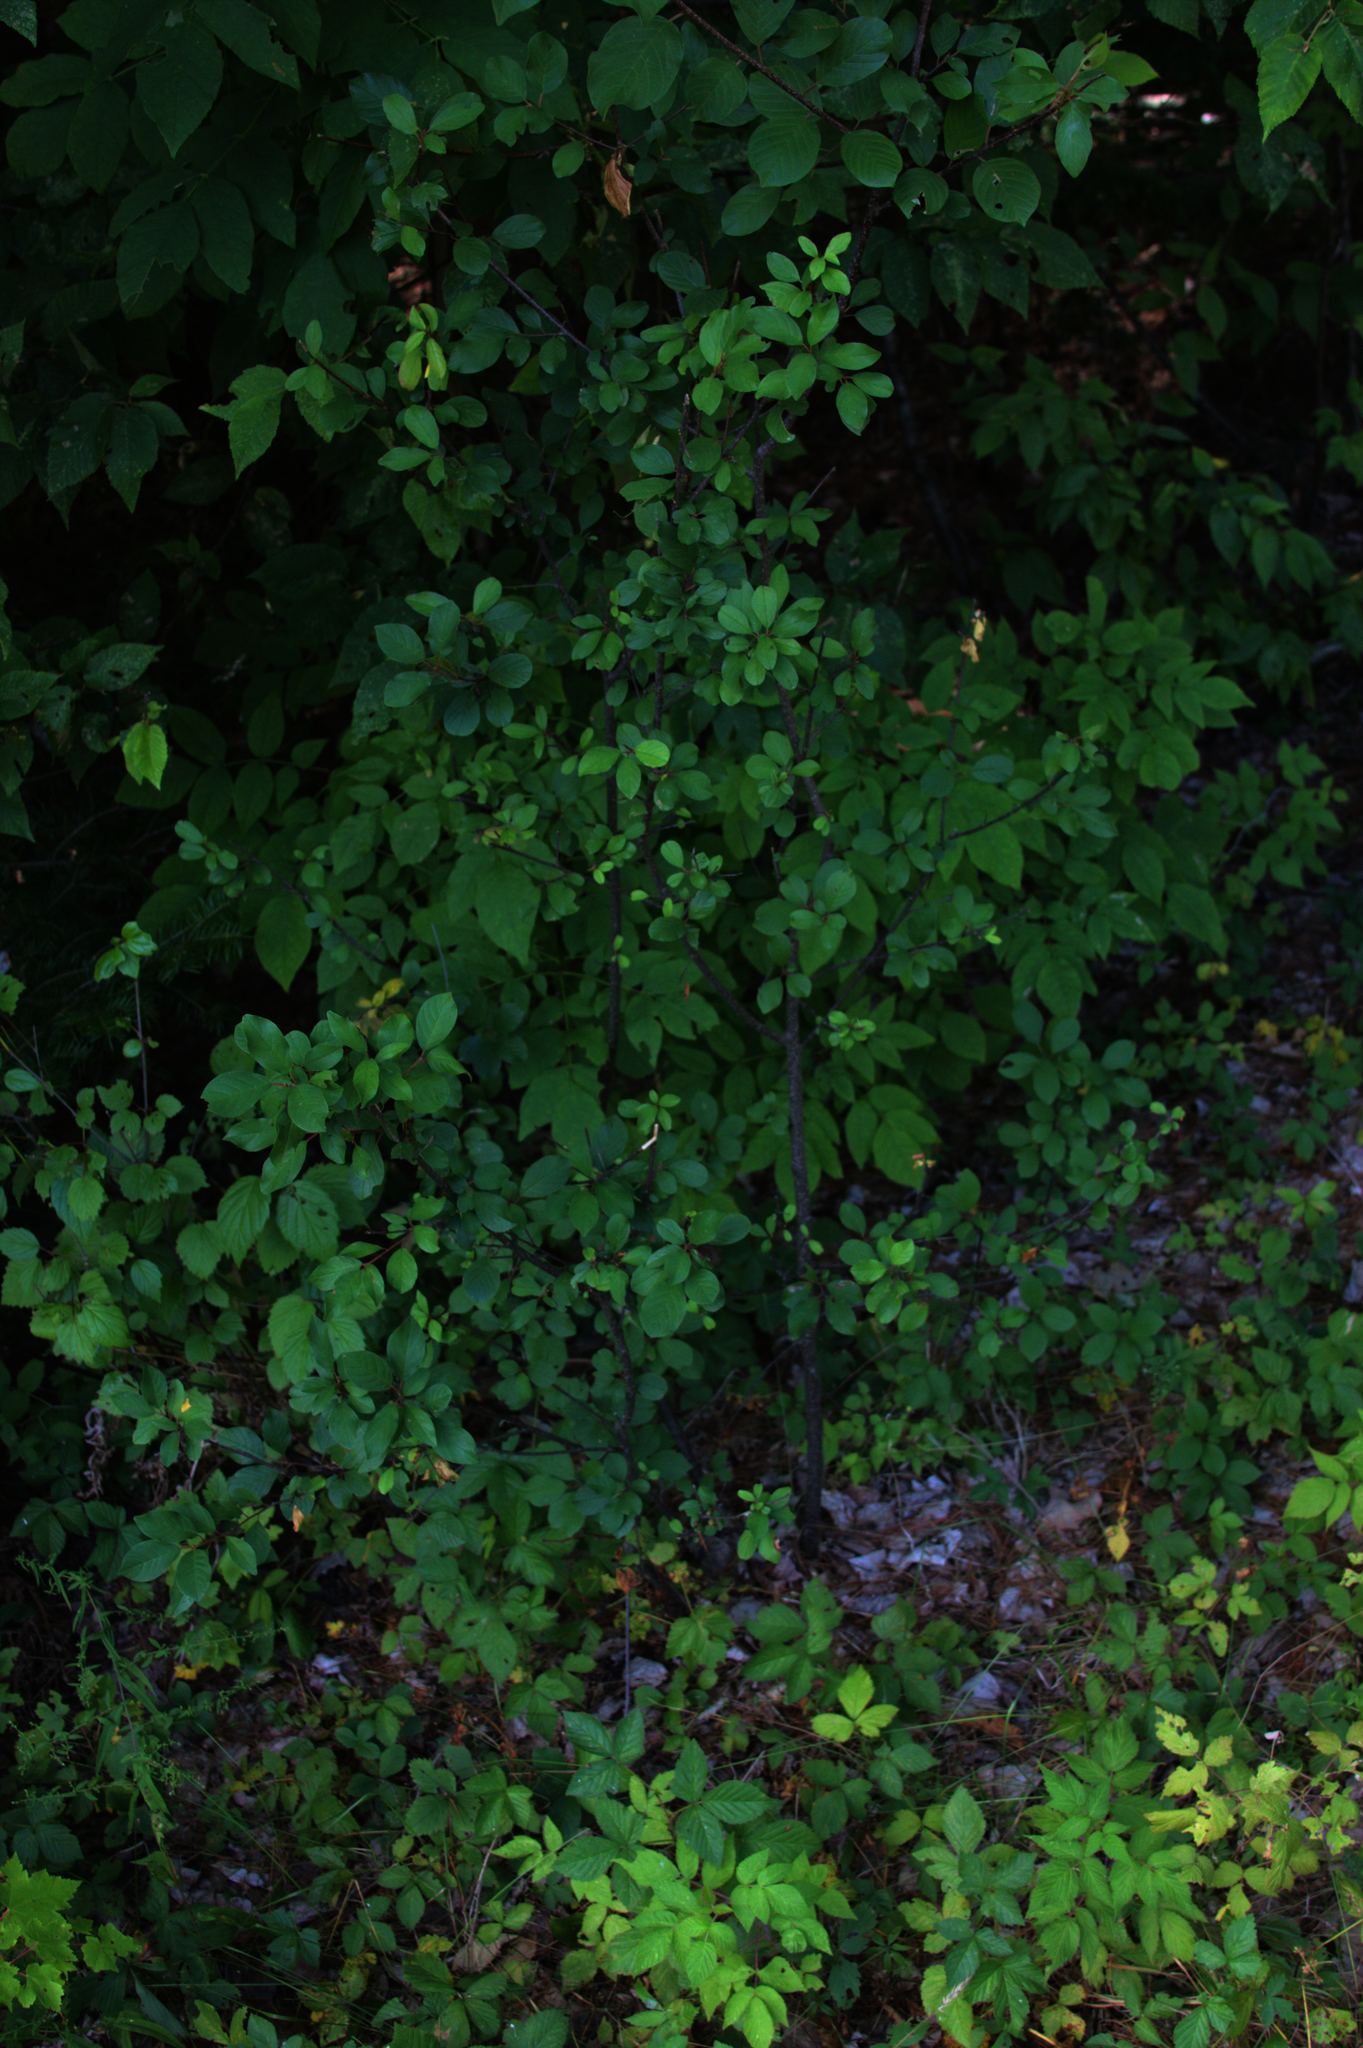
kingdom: Plantae
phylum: Tracheophyta
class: Magnoliopsida
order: Rosales
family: Rhamnaceae
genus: Frangula
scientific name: Frangula alnus
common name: Alder buckthorn
